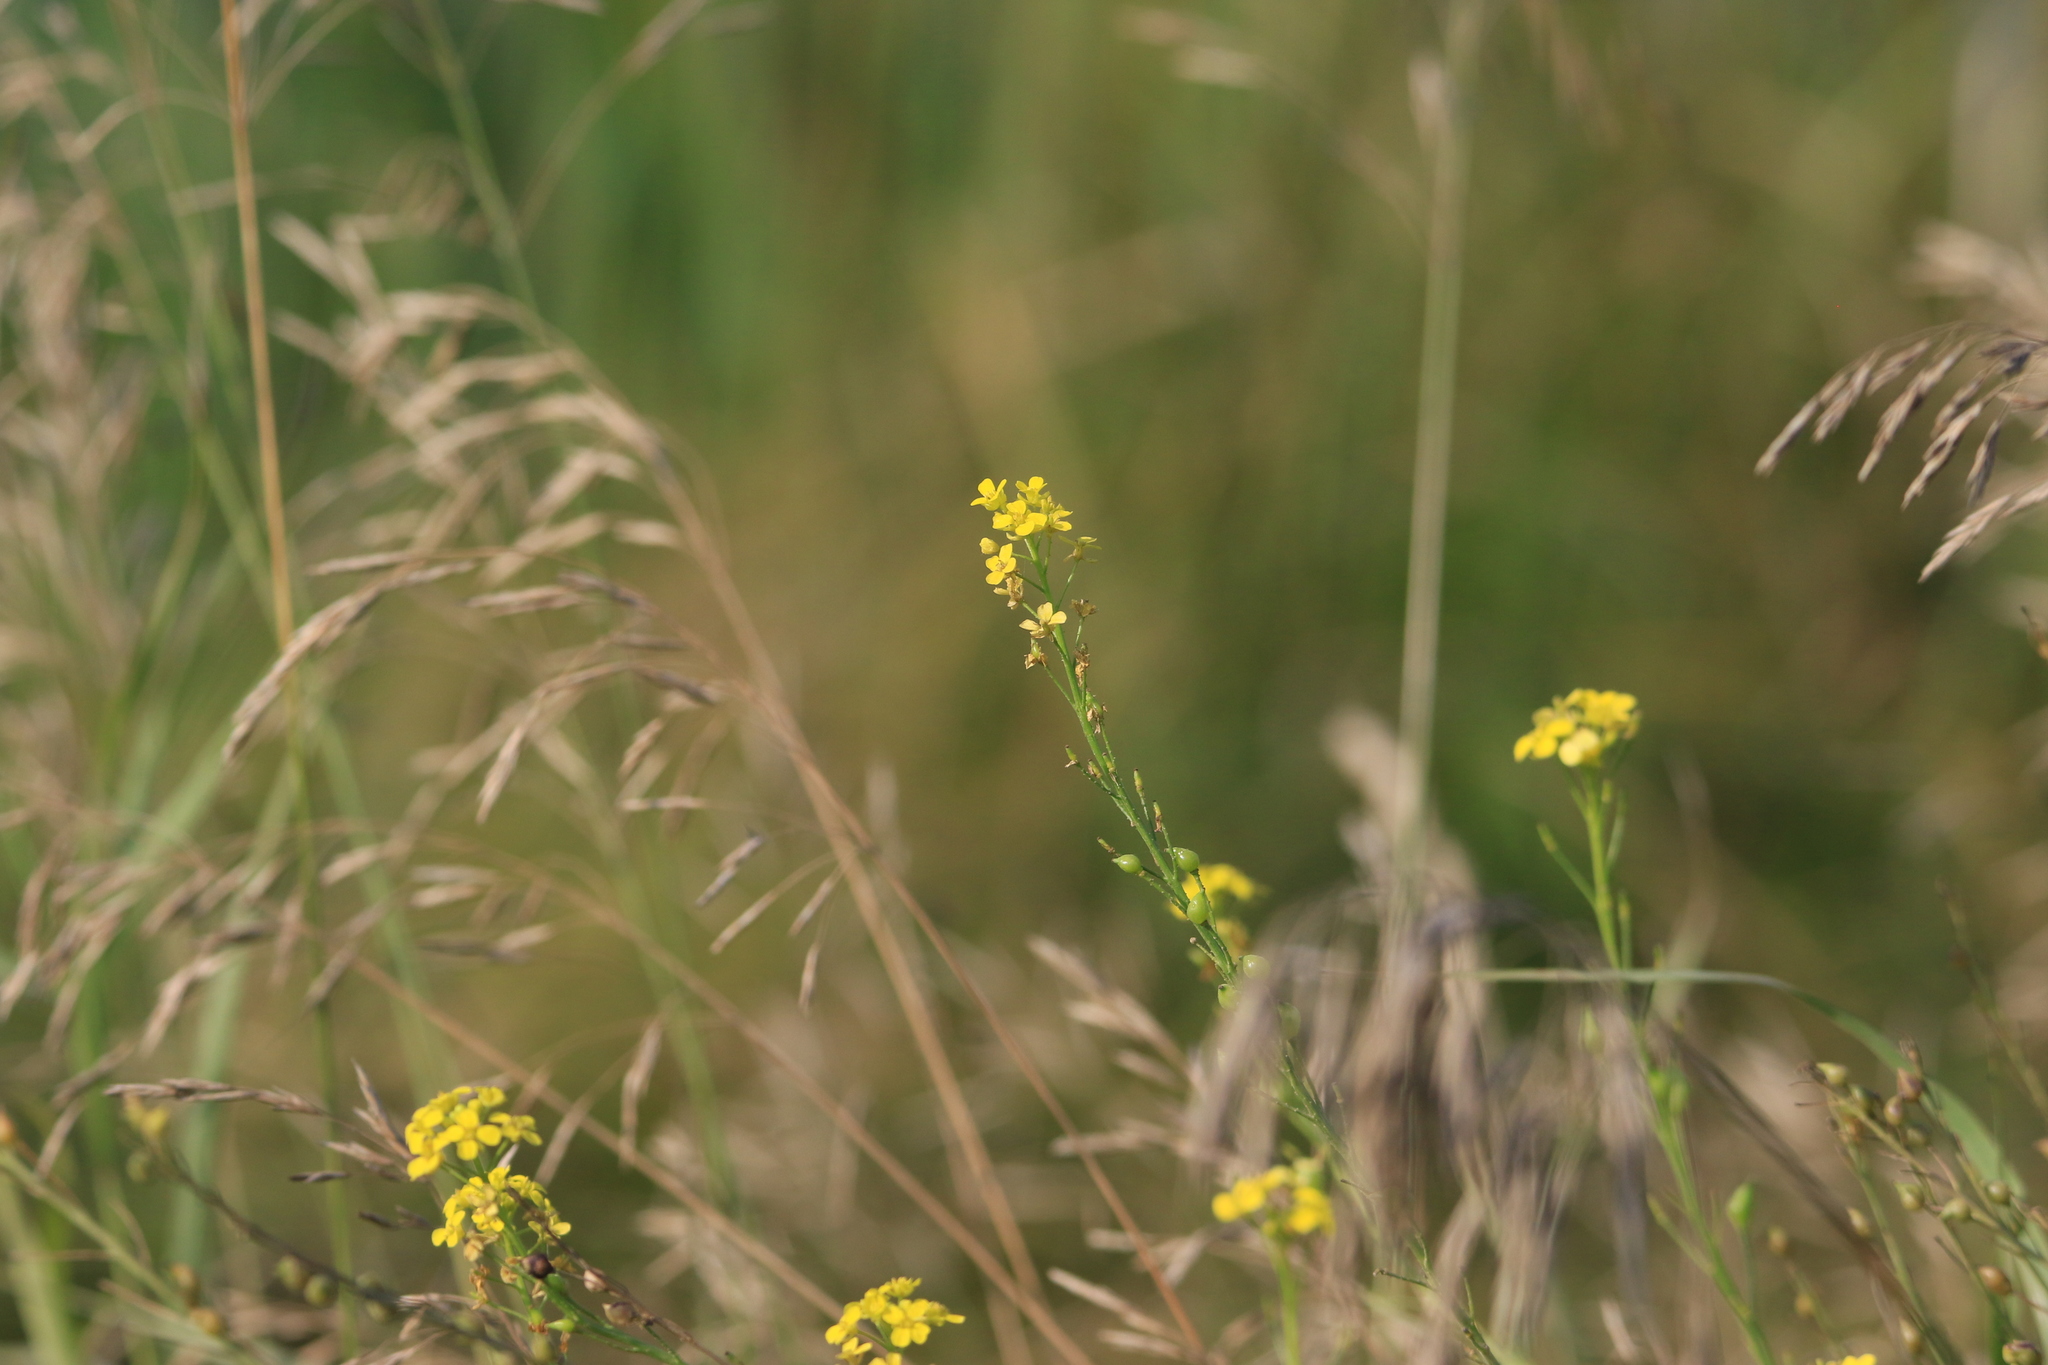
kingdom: Plantae
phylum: Tracheophyta
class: Magnoliopsida
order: Brassicales
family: Brassicaceae
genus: Bunias
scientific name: Bunias orientalis
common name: Warty-cabbage
